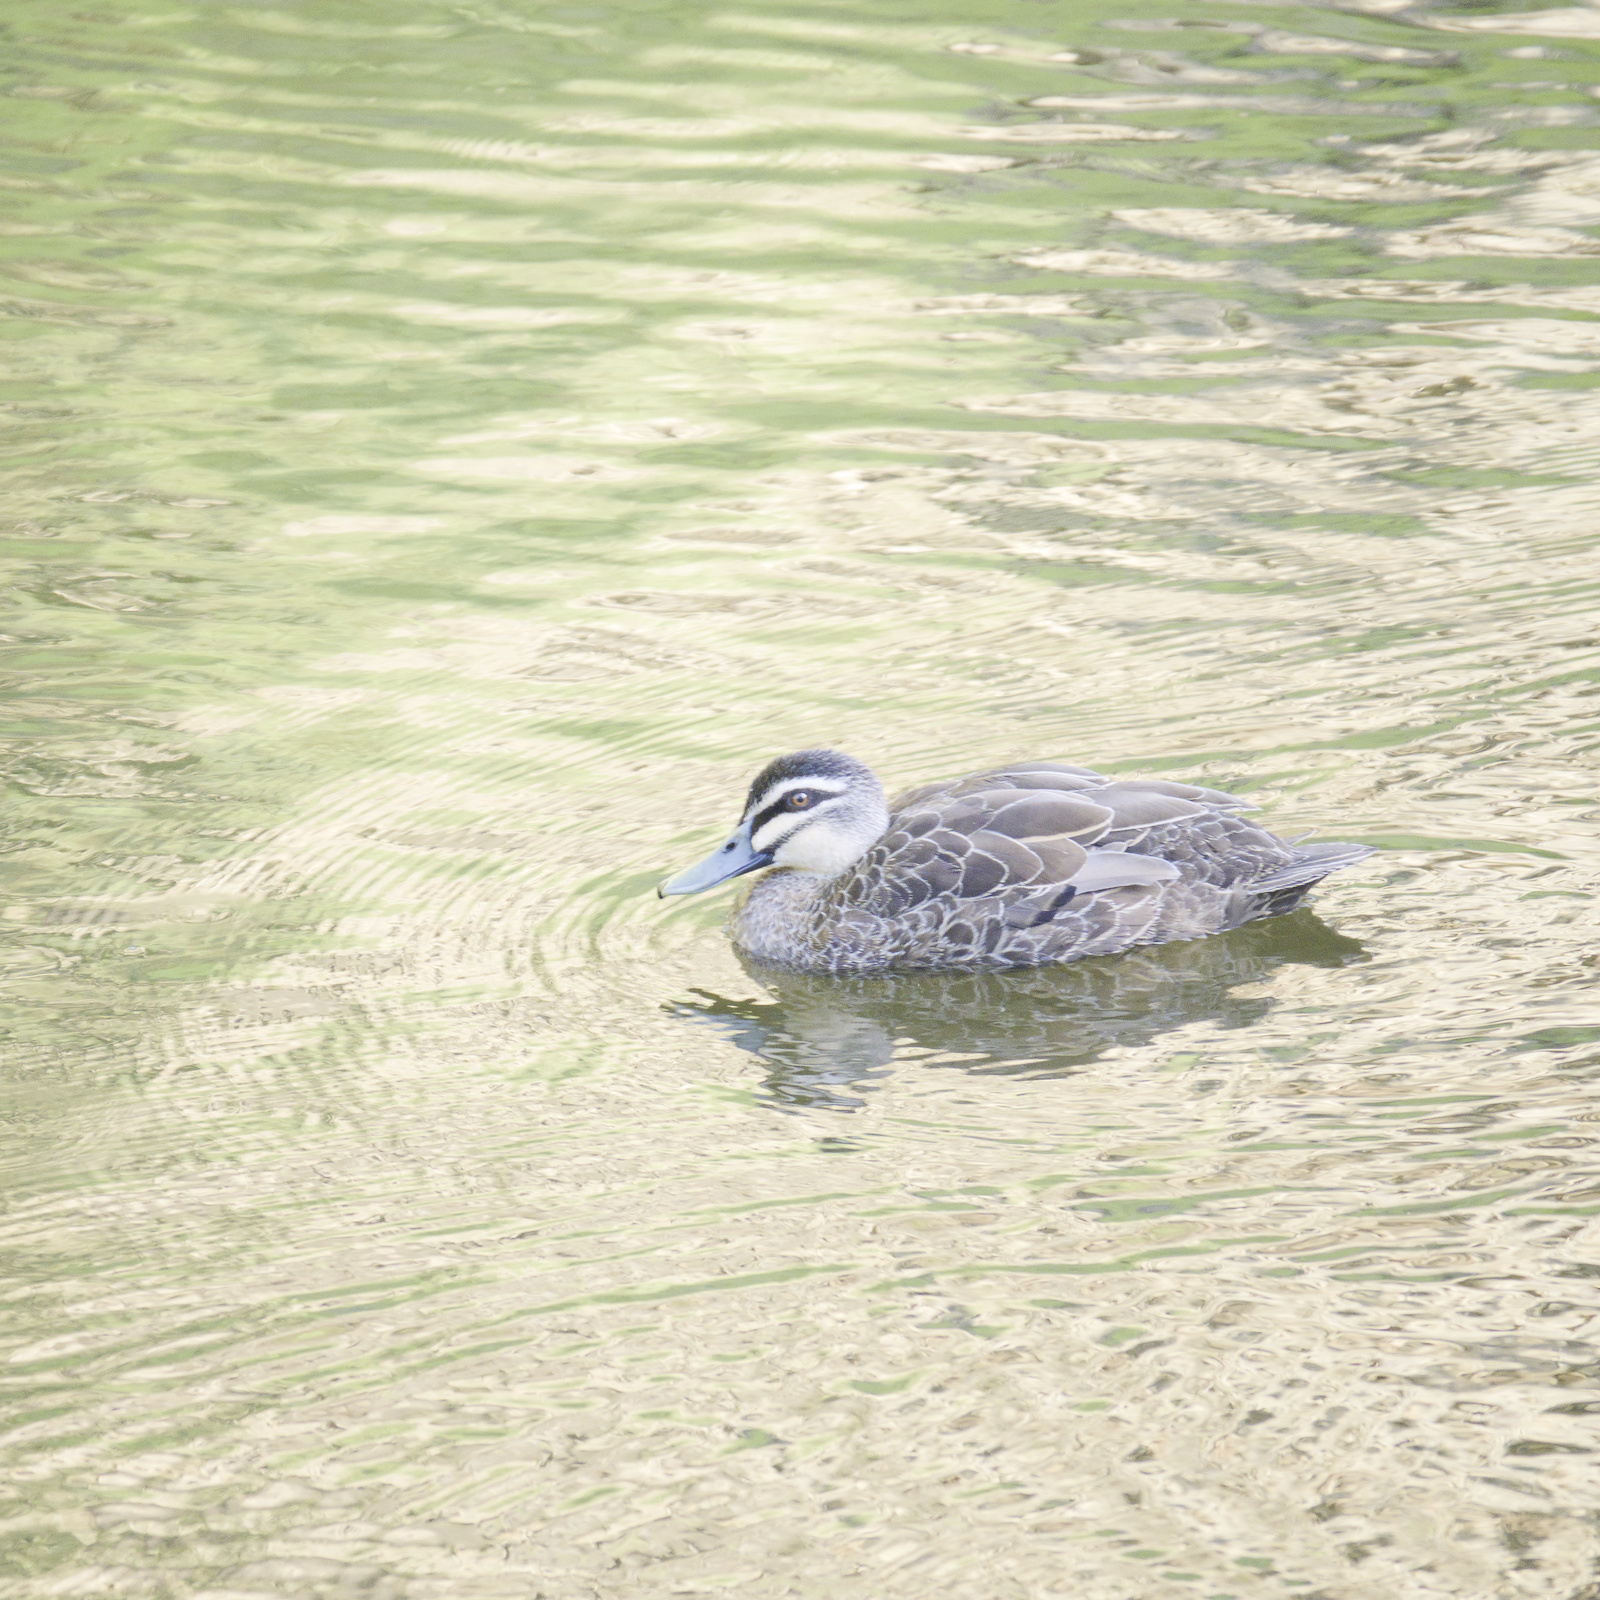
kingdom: Animalia
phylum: Chordata
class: Aves
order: Anseriformes
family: Anatidae
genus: Anas
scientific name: Anas superciliosa
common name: Pacific black duck
